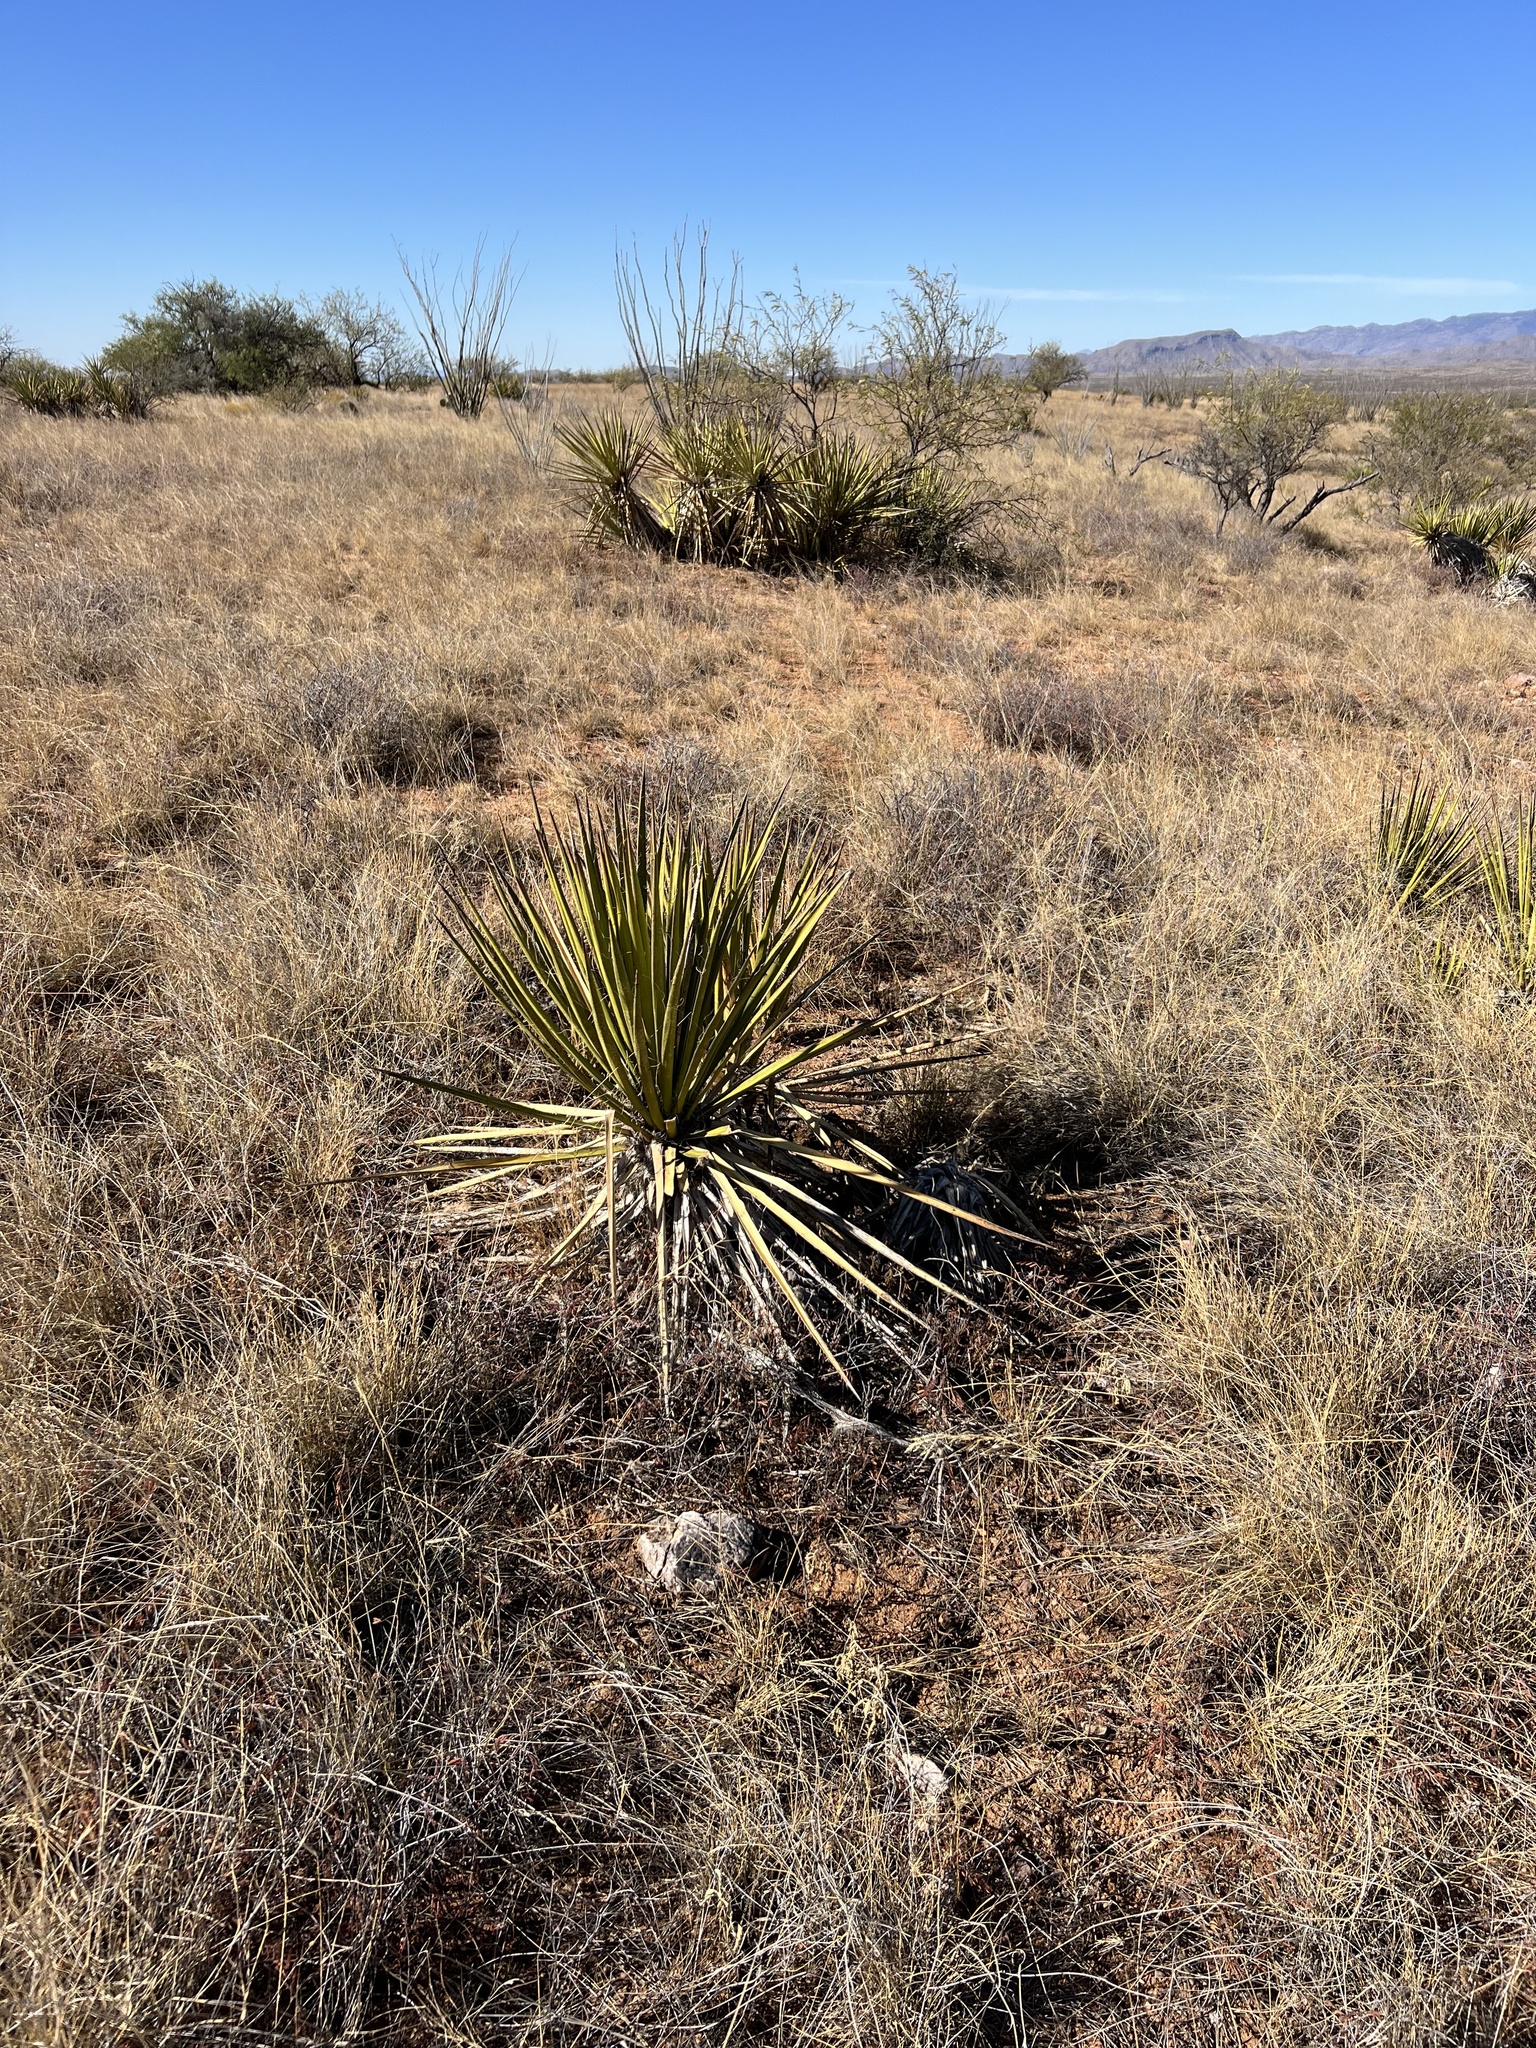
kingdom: Plantae
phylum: Tracheophyta
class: Liliopsida
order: Asparagales
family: Asparagaceae
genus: Yucca
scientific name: Yucca baccata
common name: Banana yucca
